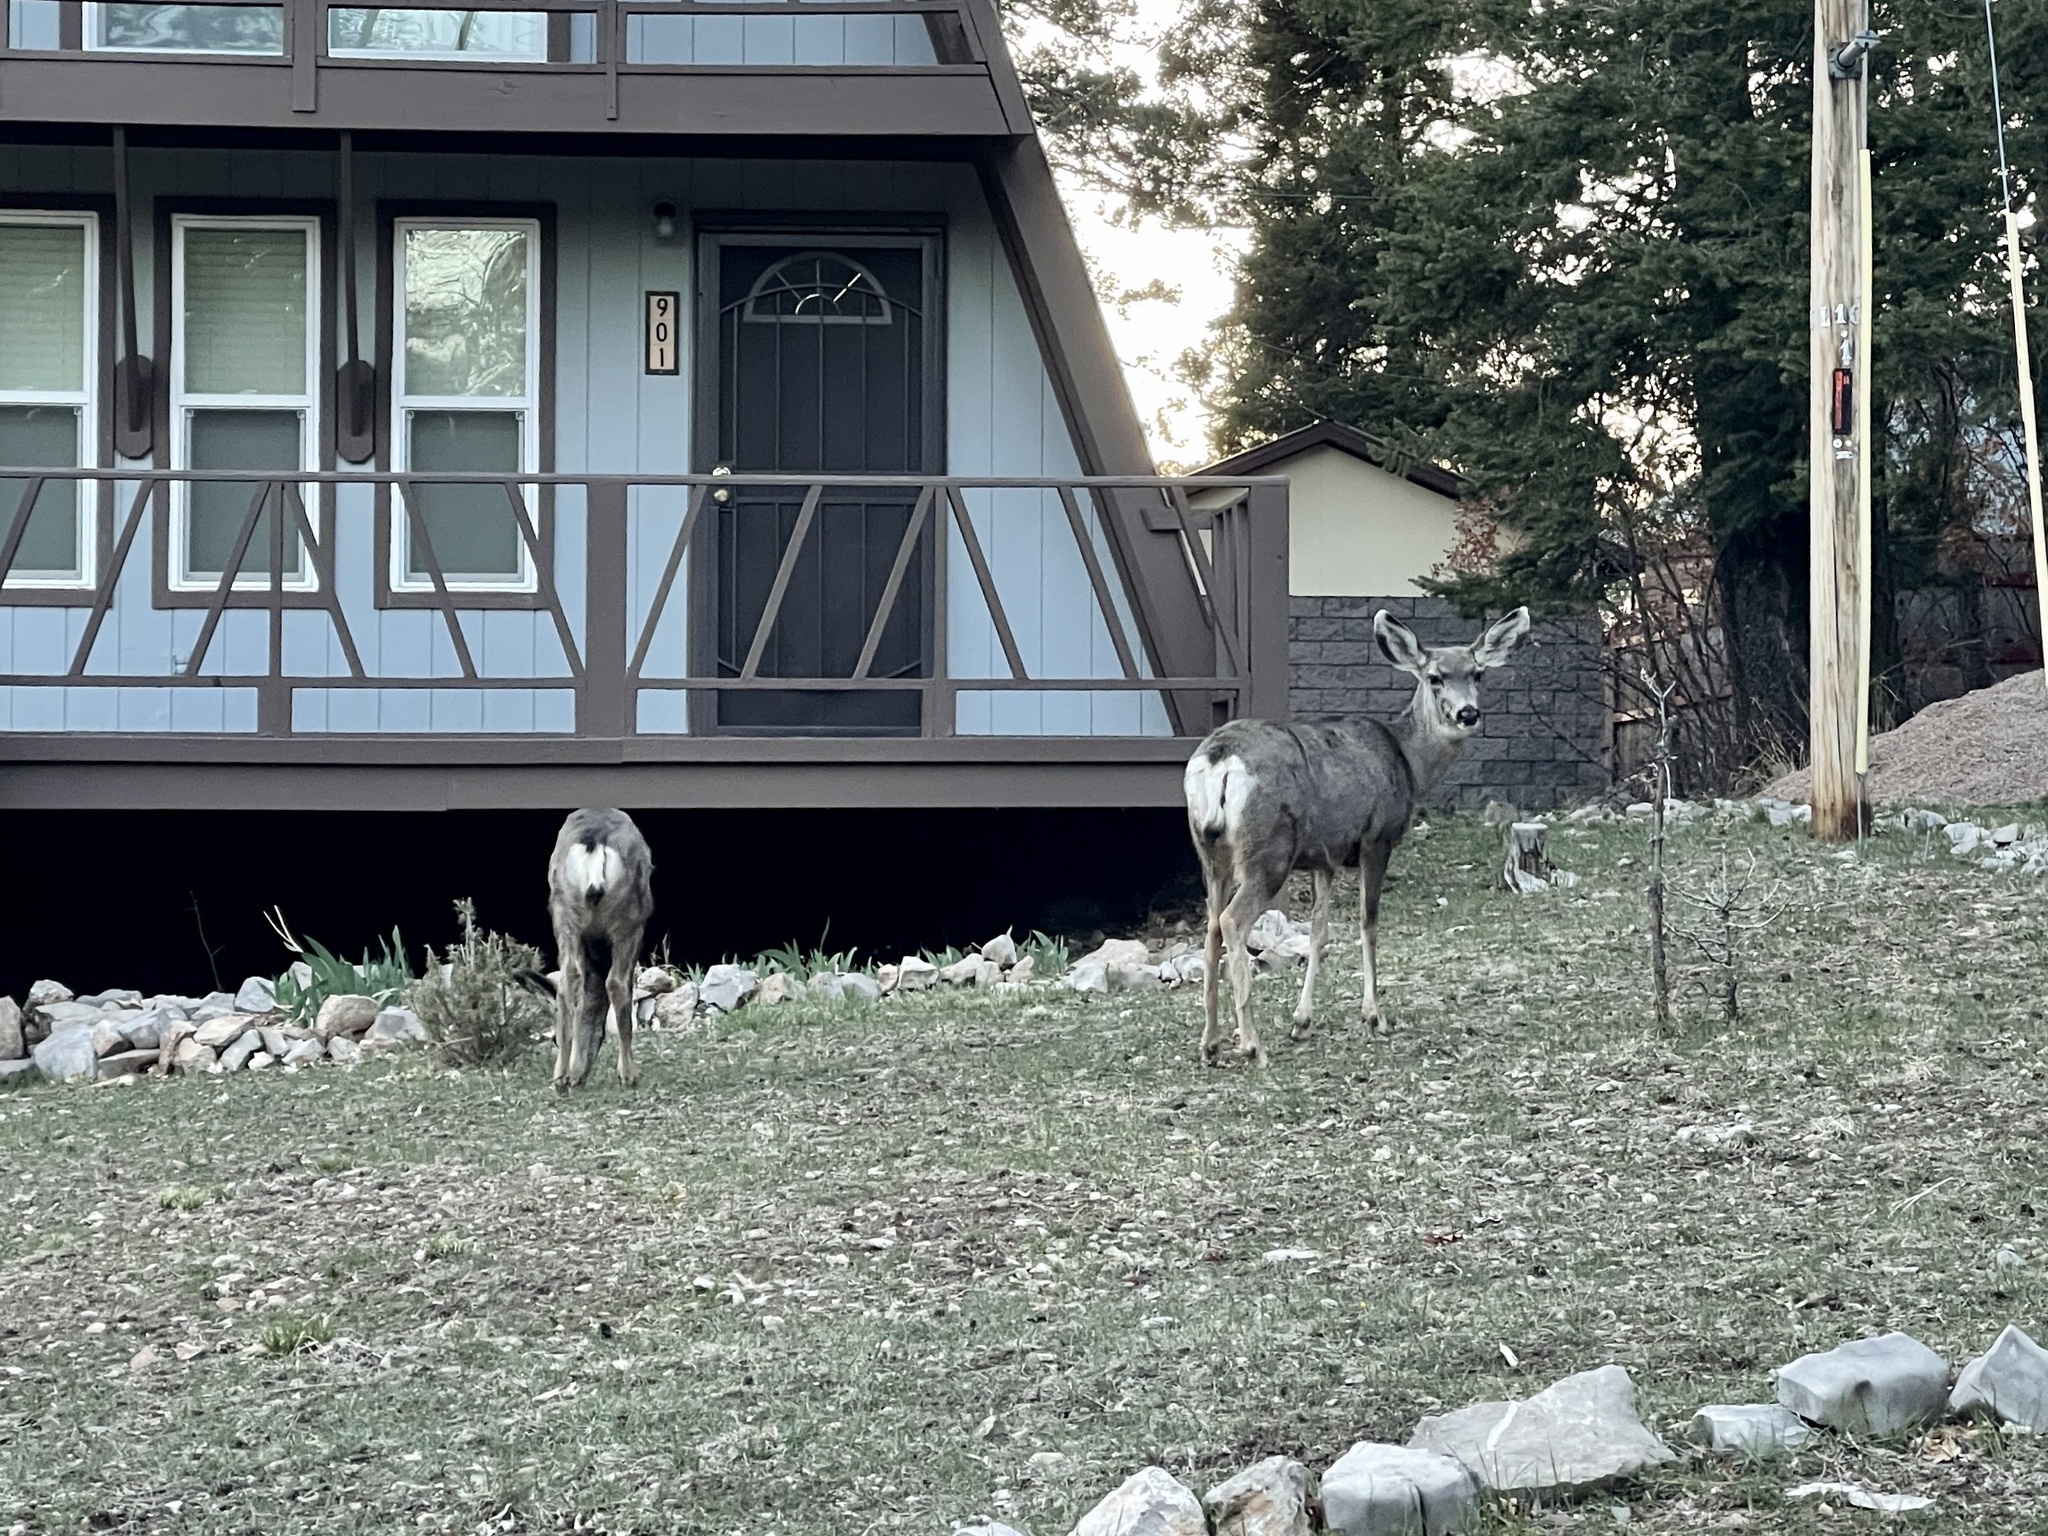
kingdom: Animalia
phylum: Chordata
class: Mammalia
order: Artiodactyla
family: Cervidae
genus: Odocoileus
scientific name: Odocoileus hemionus
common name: Mule deer
